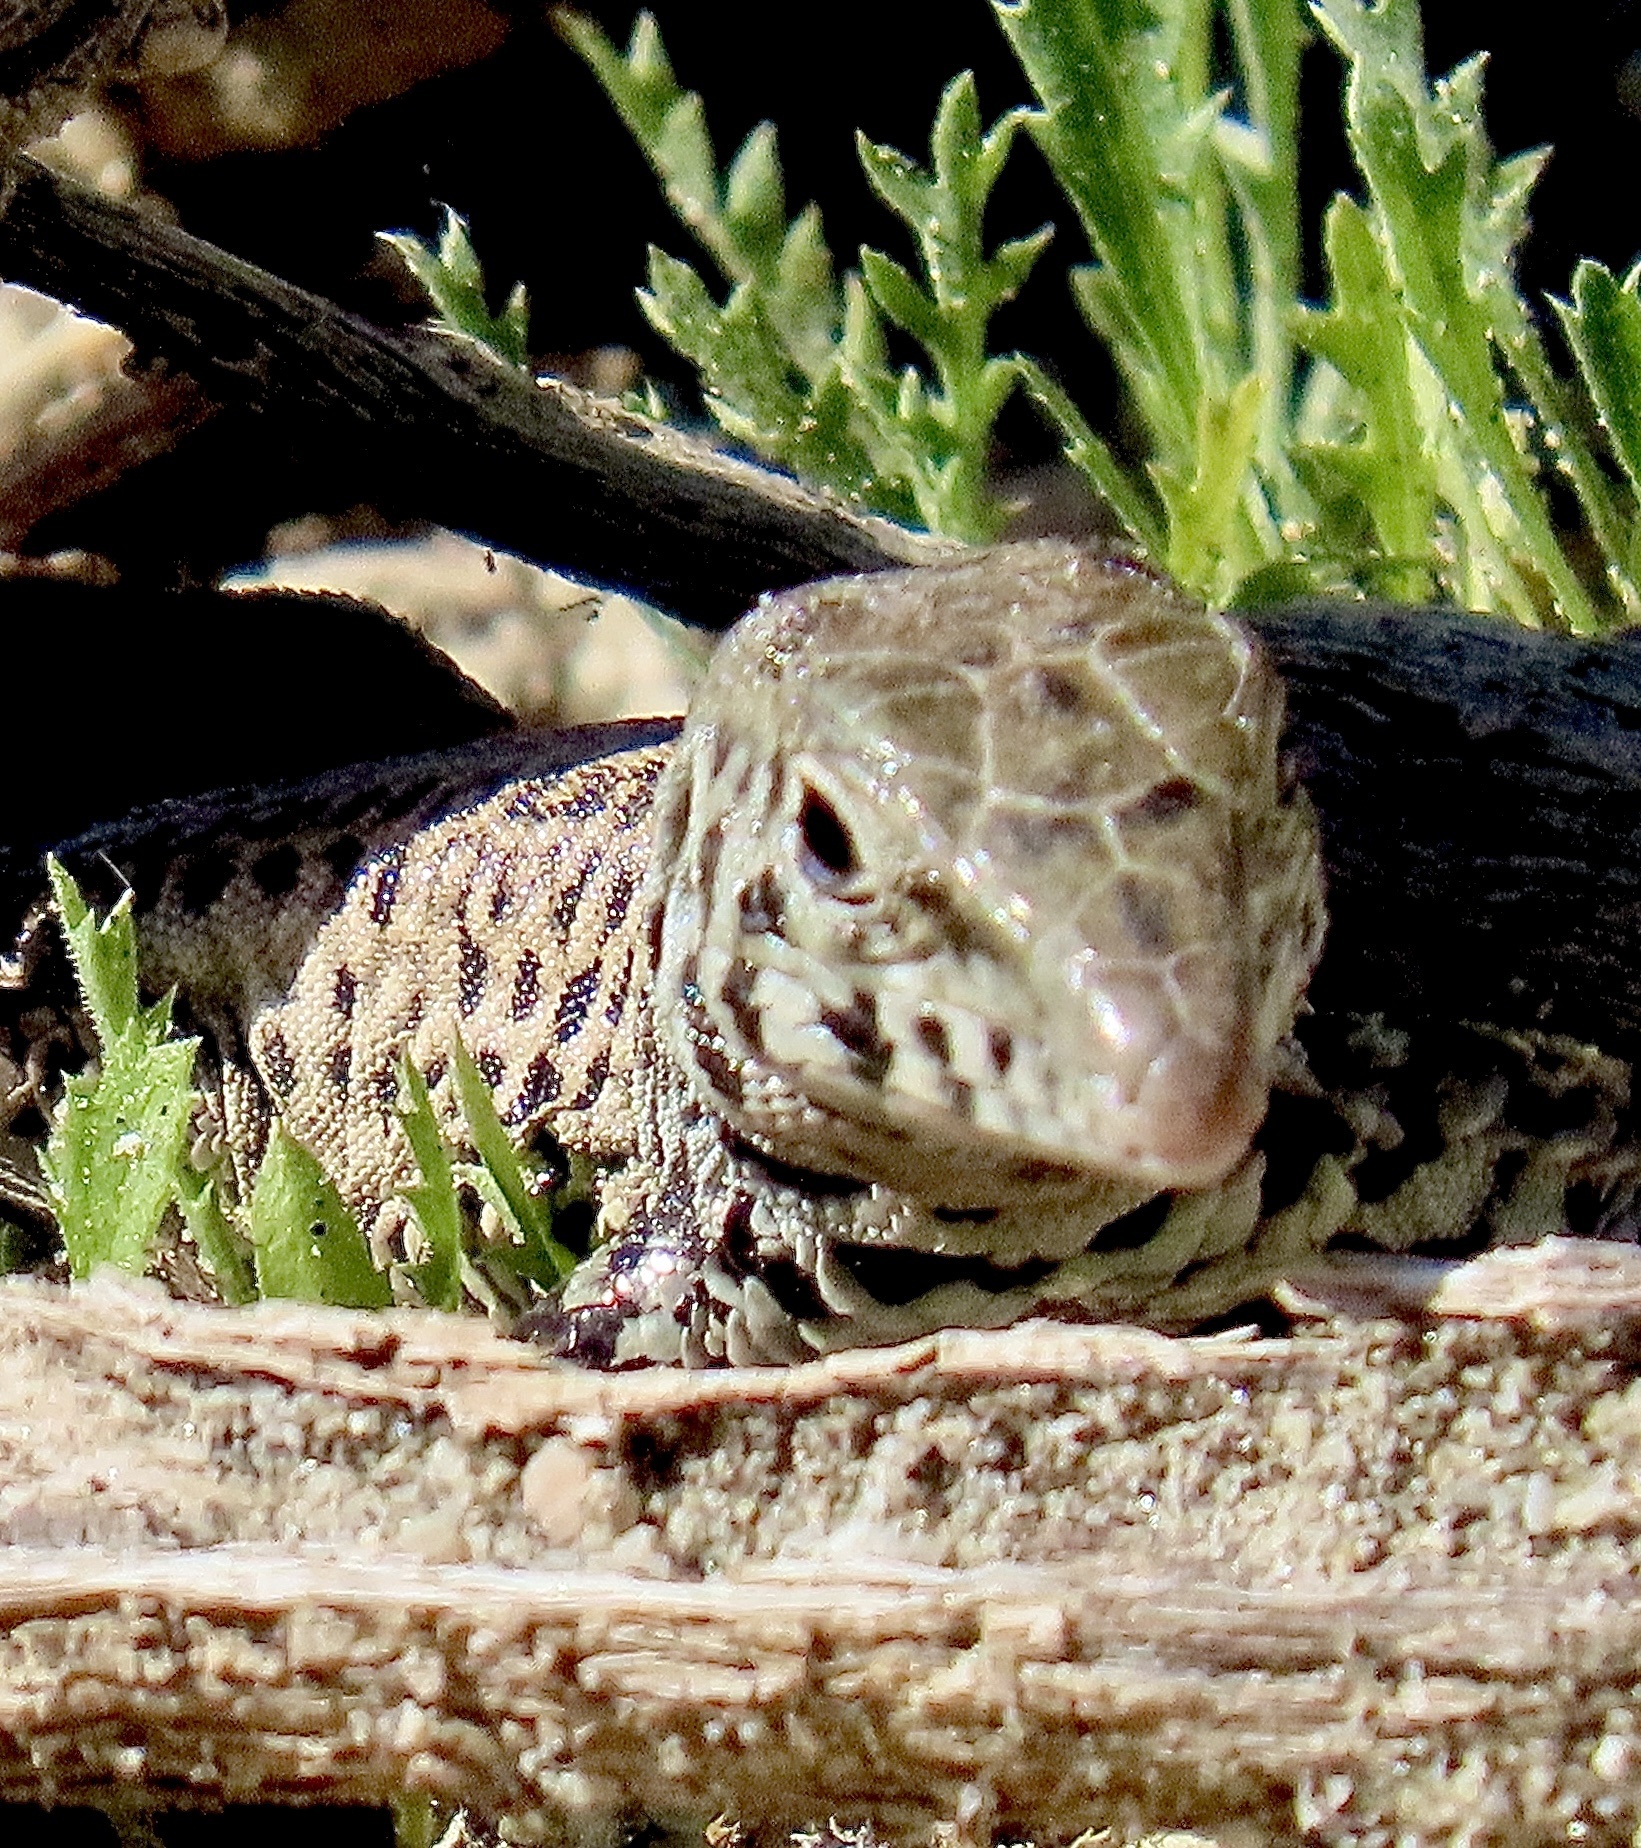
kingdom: Animalia
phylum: Chordata
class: Squamata
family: Teiidae
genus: Aspidoscelis
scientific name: Aspidoscelis tigris
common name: Tiger whiptail
